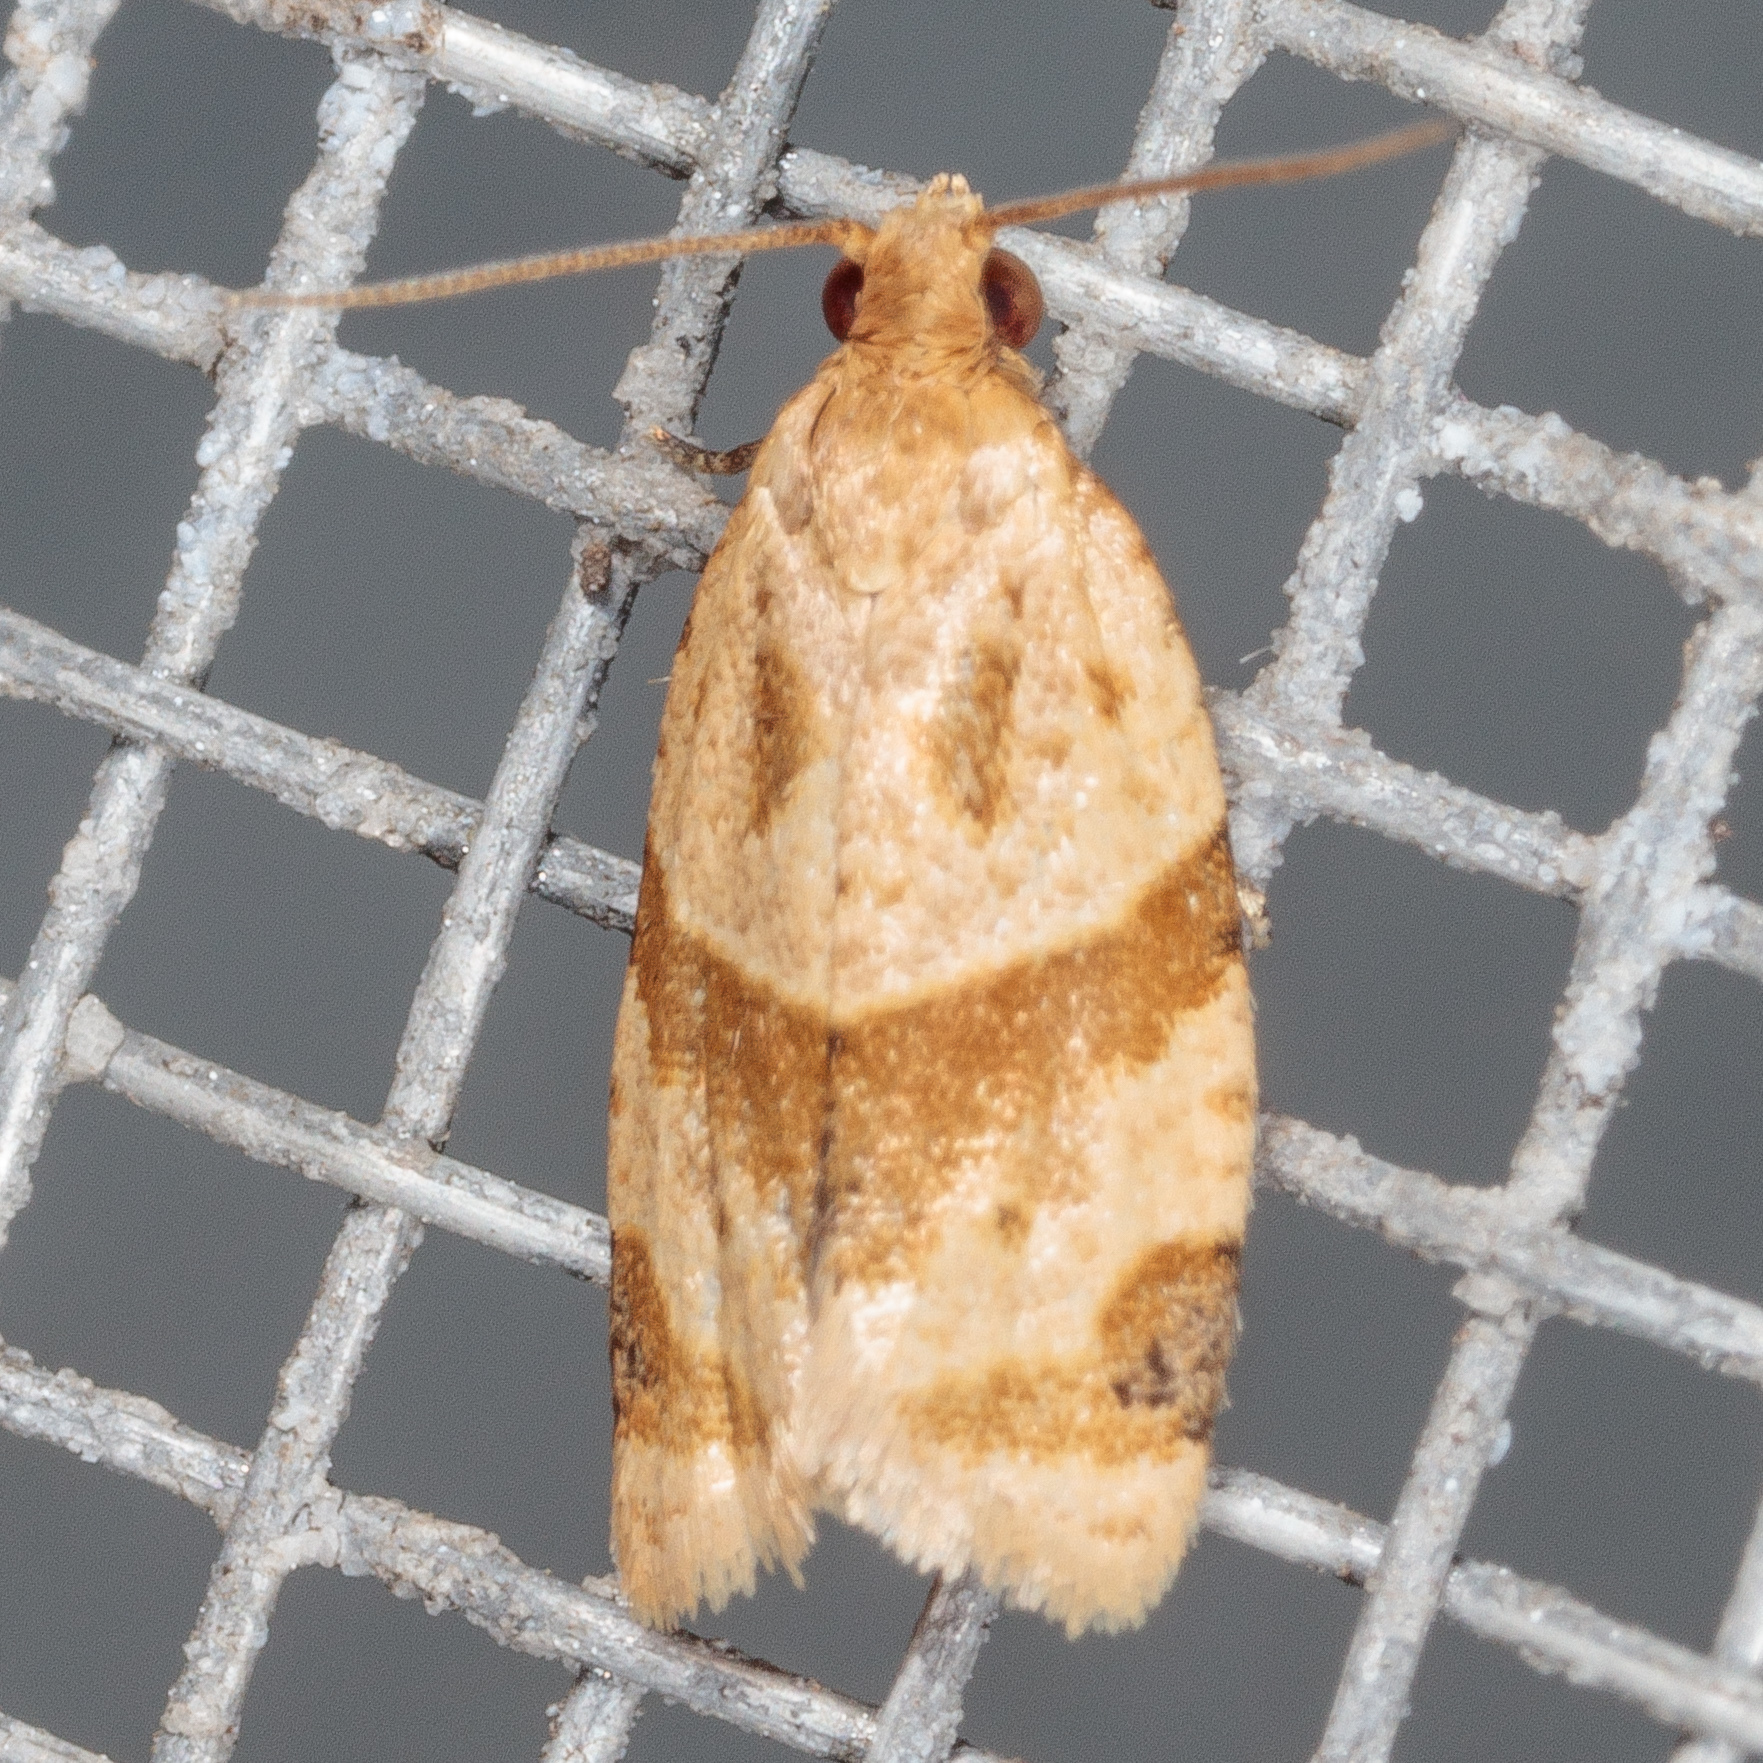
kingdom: Animalia
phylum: Arthropoda
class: Insecta
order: Lepidoptera
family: Tortricidae
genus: Clepsis
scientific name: Clepsis peritana
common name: Garden tortrix
